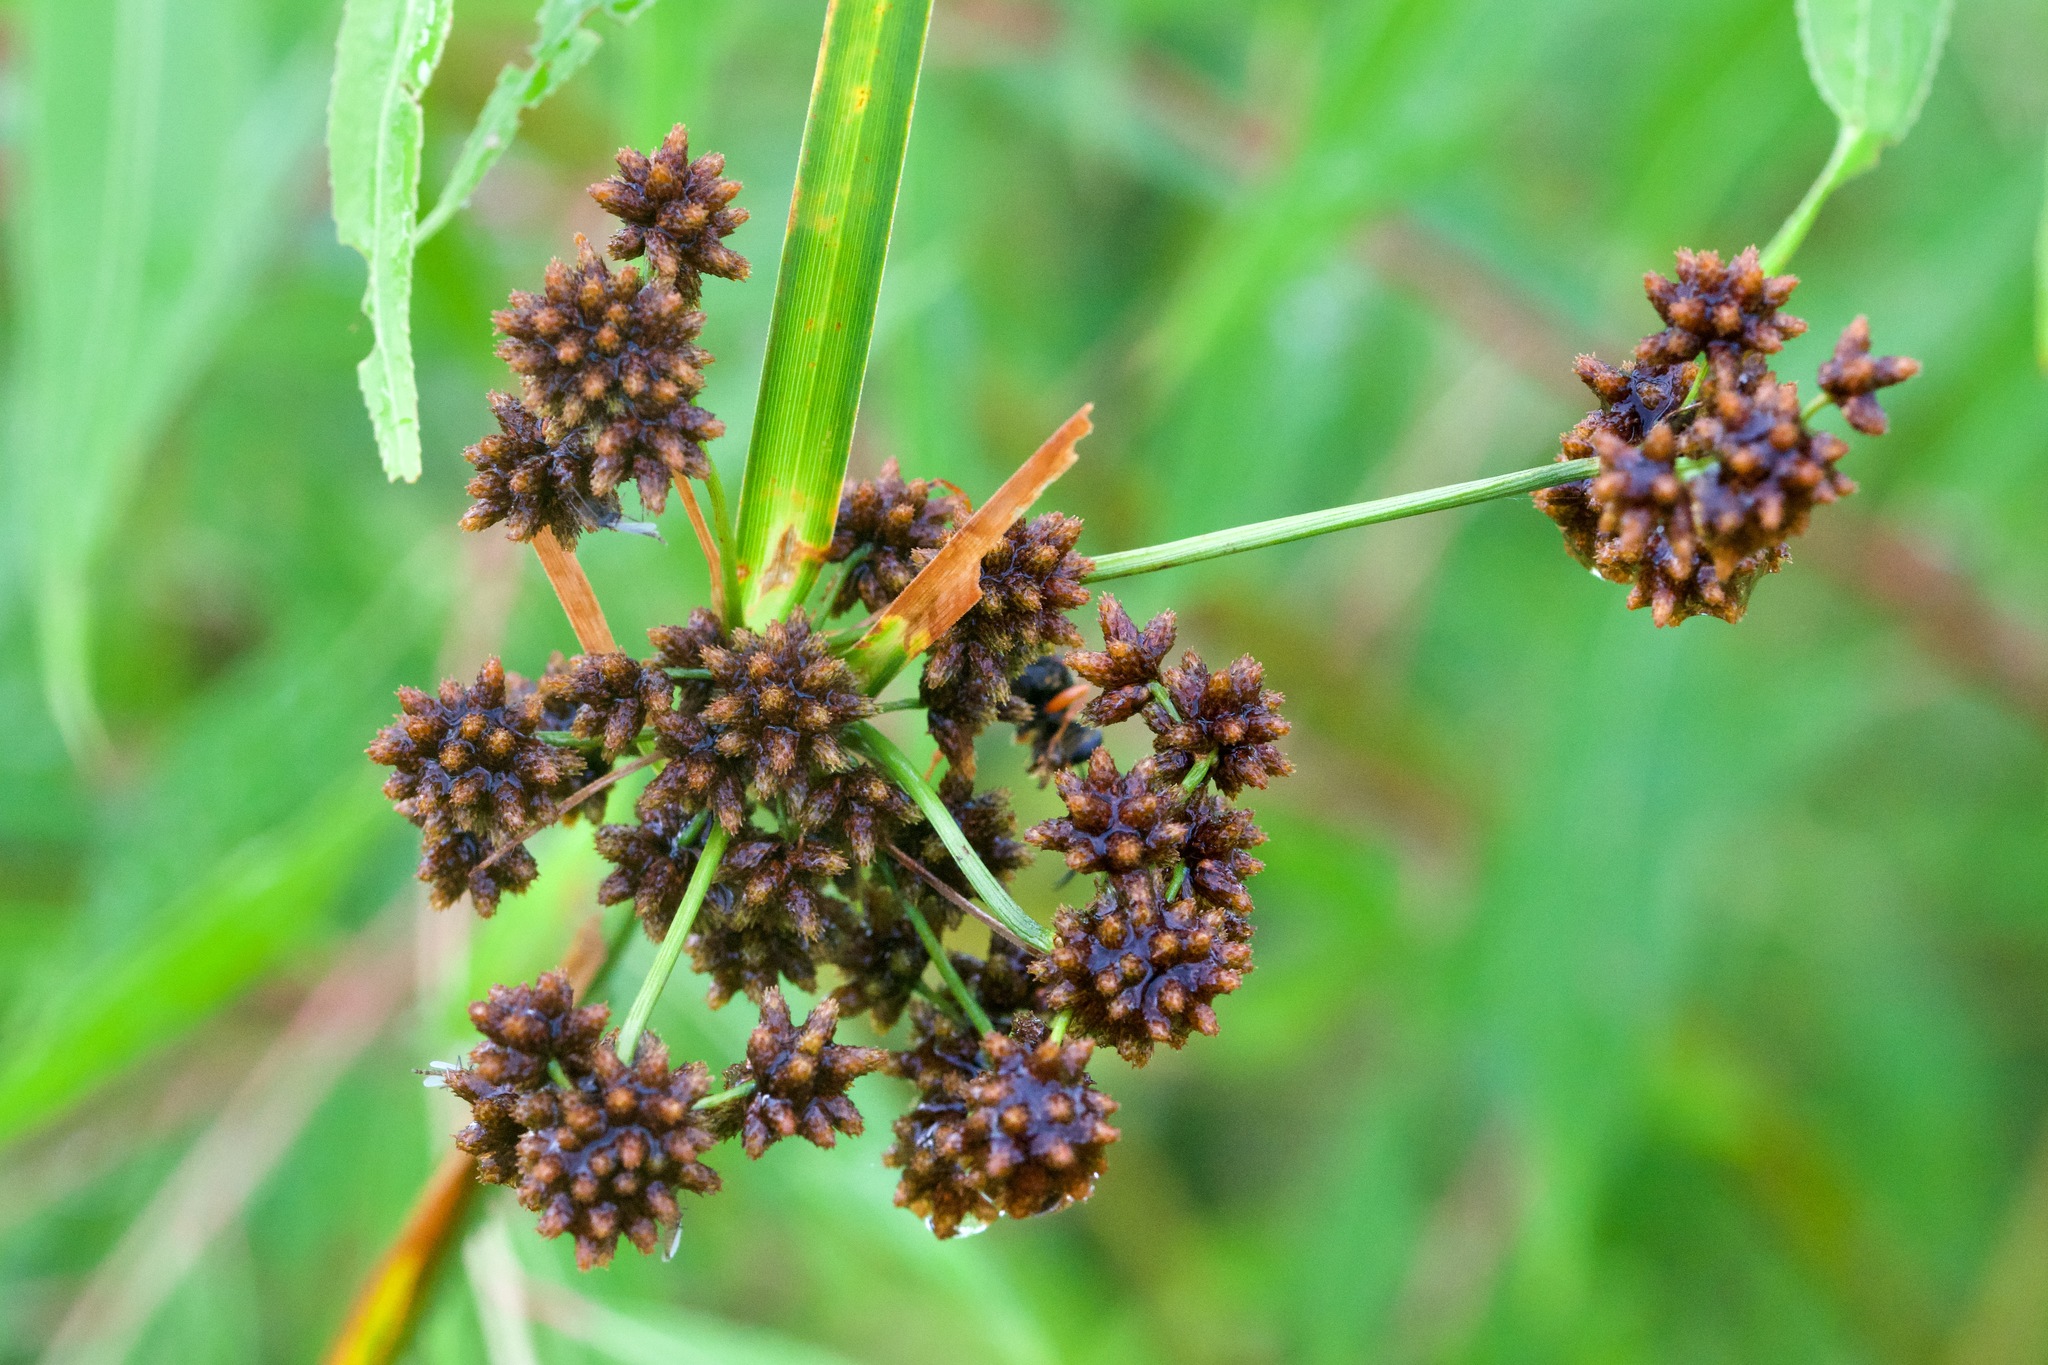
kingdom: Plantae
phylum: Tracheophyta
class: Liliopsida
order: Poales
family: Cyperaceae
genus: Scirpus
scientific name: Scirpus atrovirens
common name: Black bulrush
